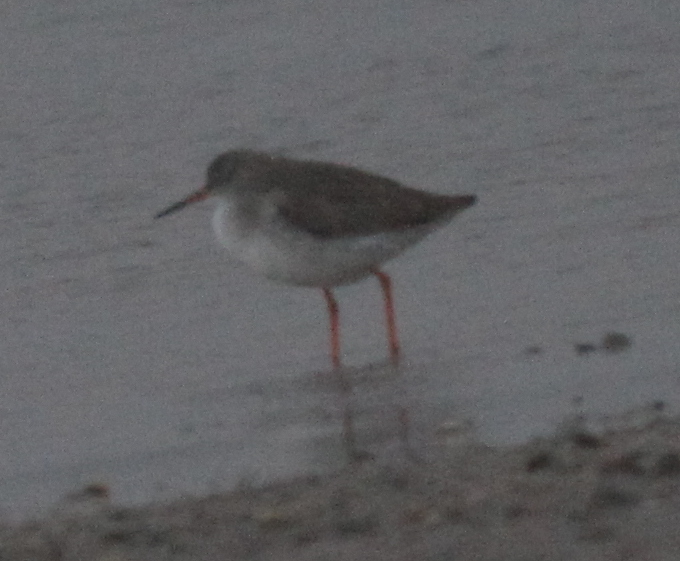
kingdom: Animalia
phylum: Chordata
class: Aves
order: Charadriiformes
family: Scolopacidae
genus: Tringa
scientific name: Tringa totanus
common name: Common redshank
